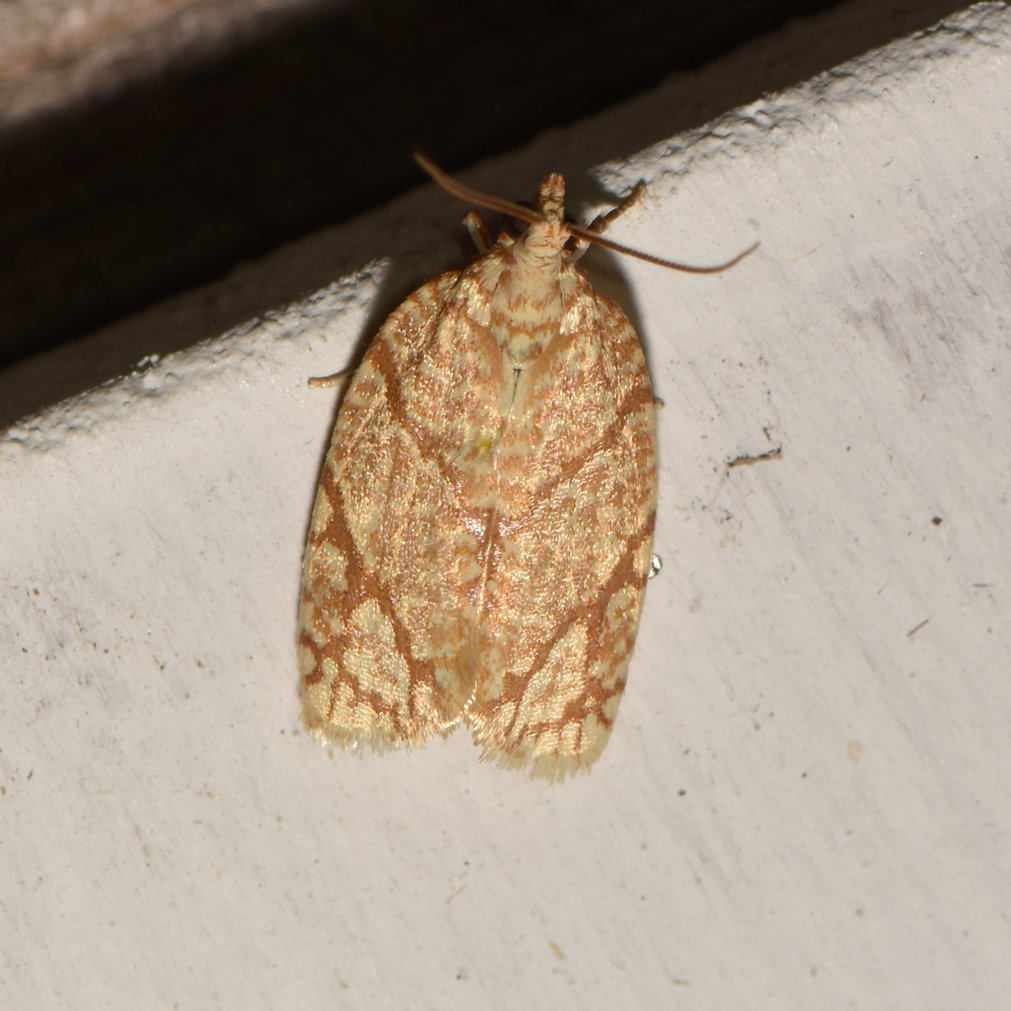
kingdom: Animalia
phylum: Arthropoda
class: Insecta
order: Lepidoptera
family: Tortricidae
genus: Argyrotaenia
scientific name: Argyrotaenia quercifoliana
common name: Yellow-winged oak leafroller moth
